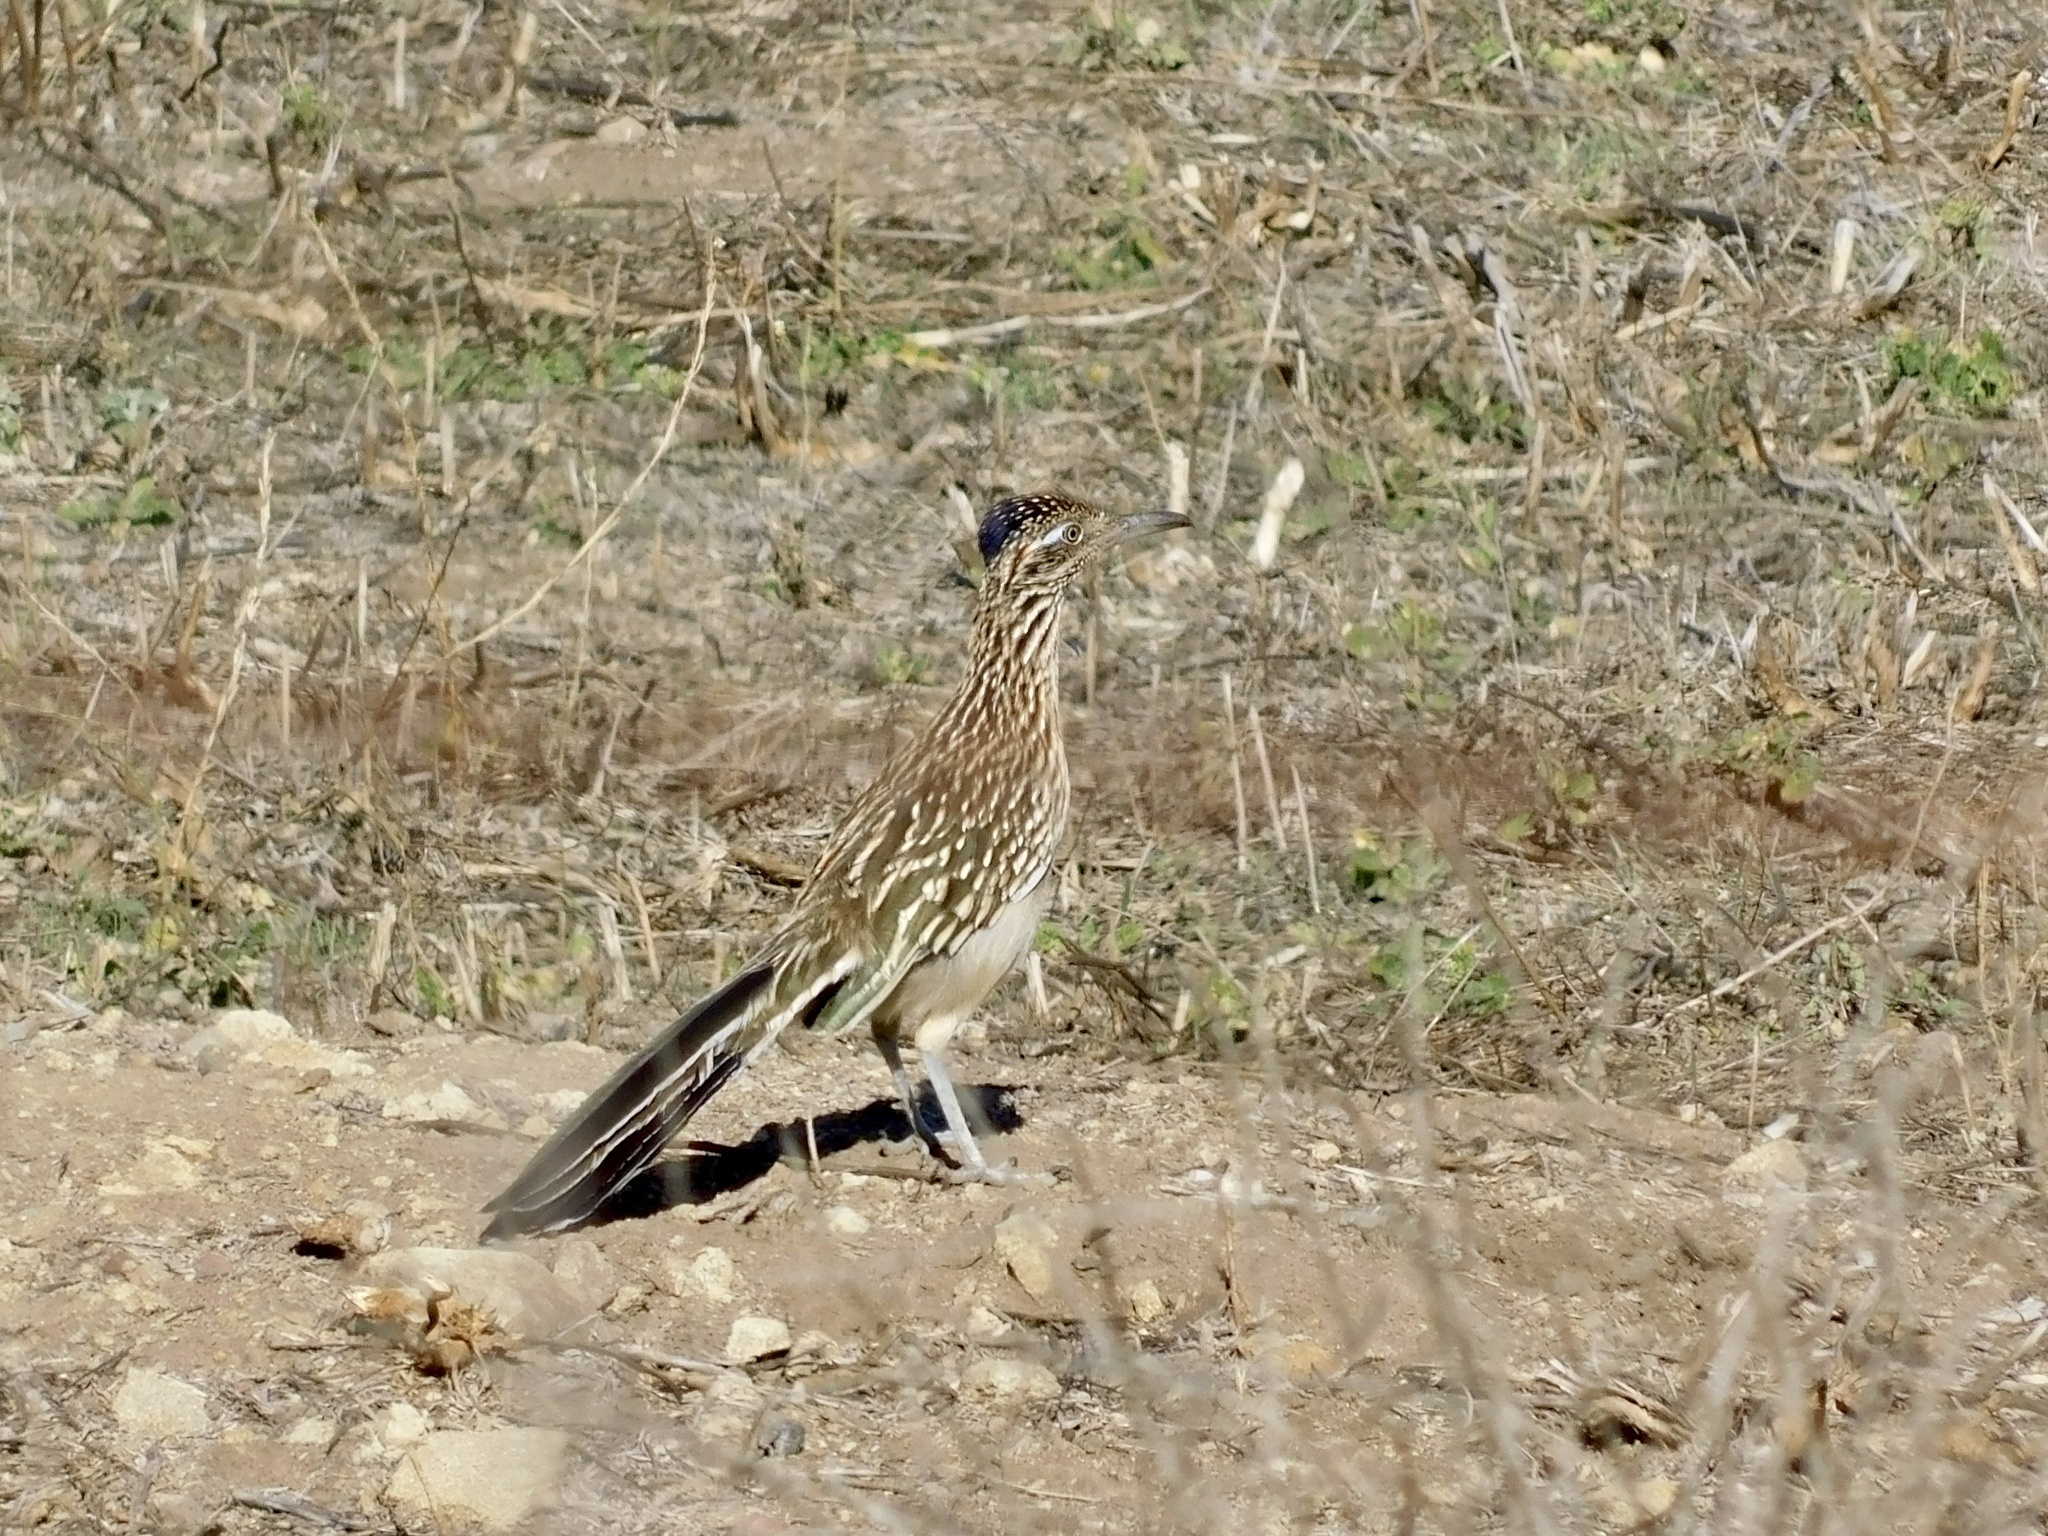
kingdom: Animalia
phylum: Chordata
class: Aves
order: Cuculiformes
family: Cuculidae
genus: Geococcyx
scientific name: Geococcyx californianus
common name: Greater roadrunner
